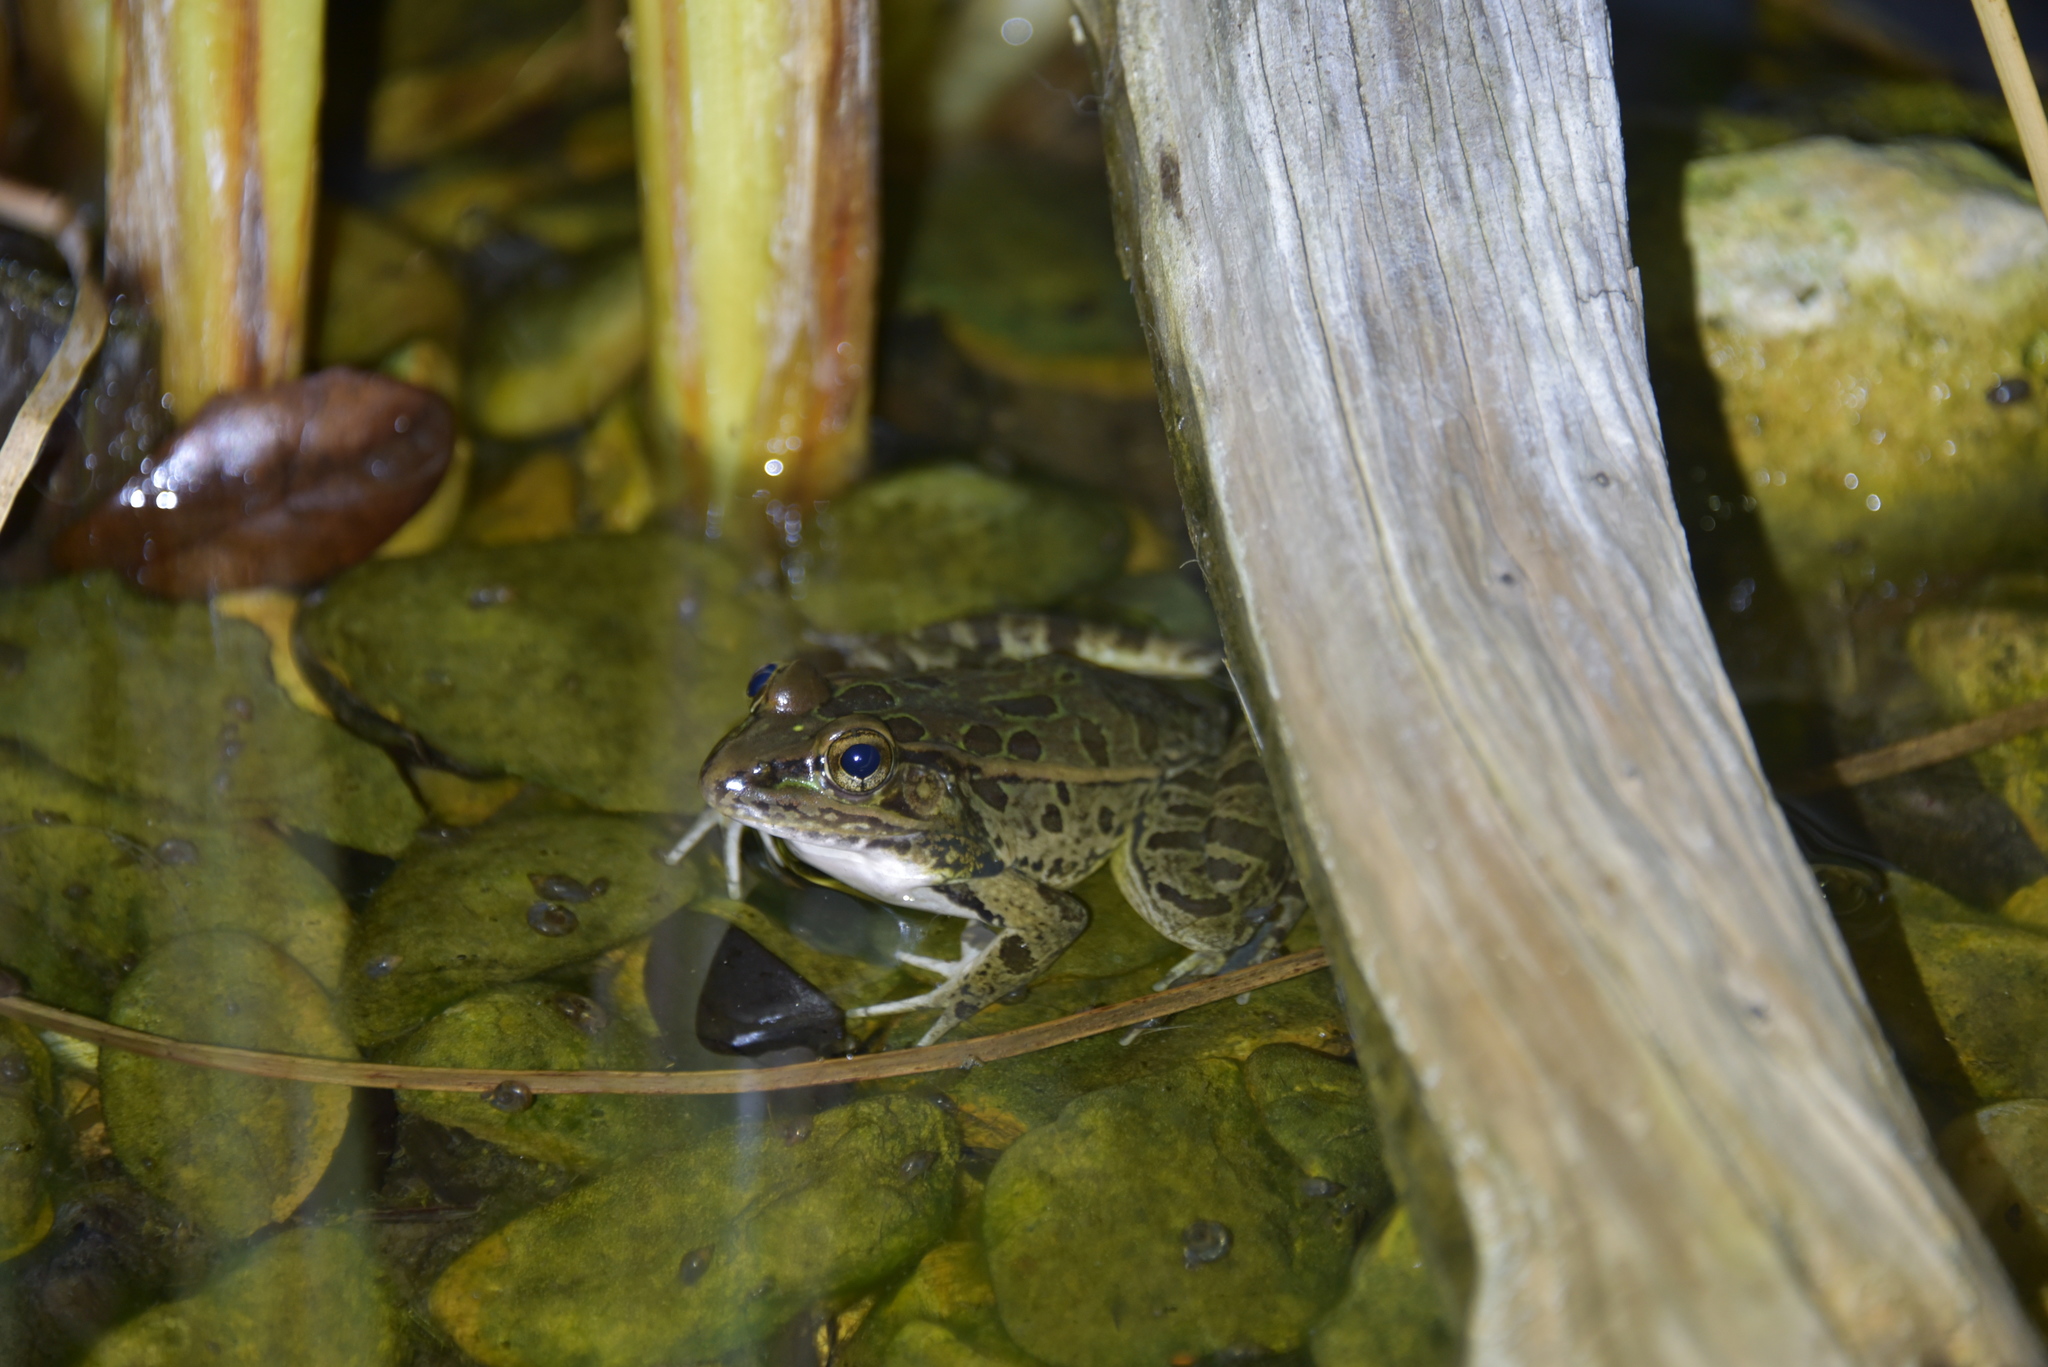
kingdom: Animalia
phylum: Chordata
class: Amphibia
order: Anura
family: Ranidae
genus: Lithobates
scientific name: Lithobates berlandieri
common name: Rio grande leopard frog
